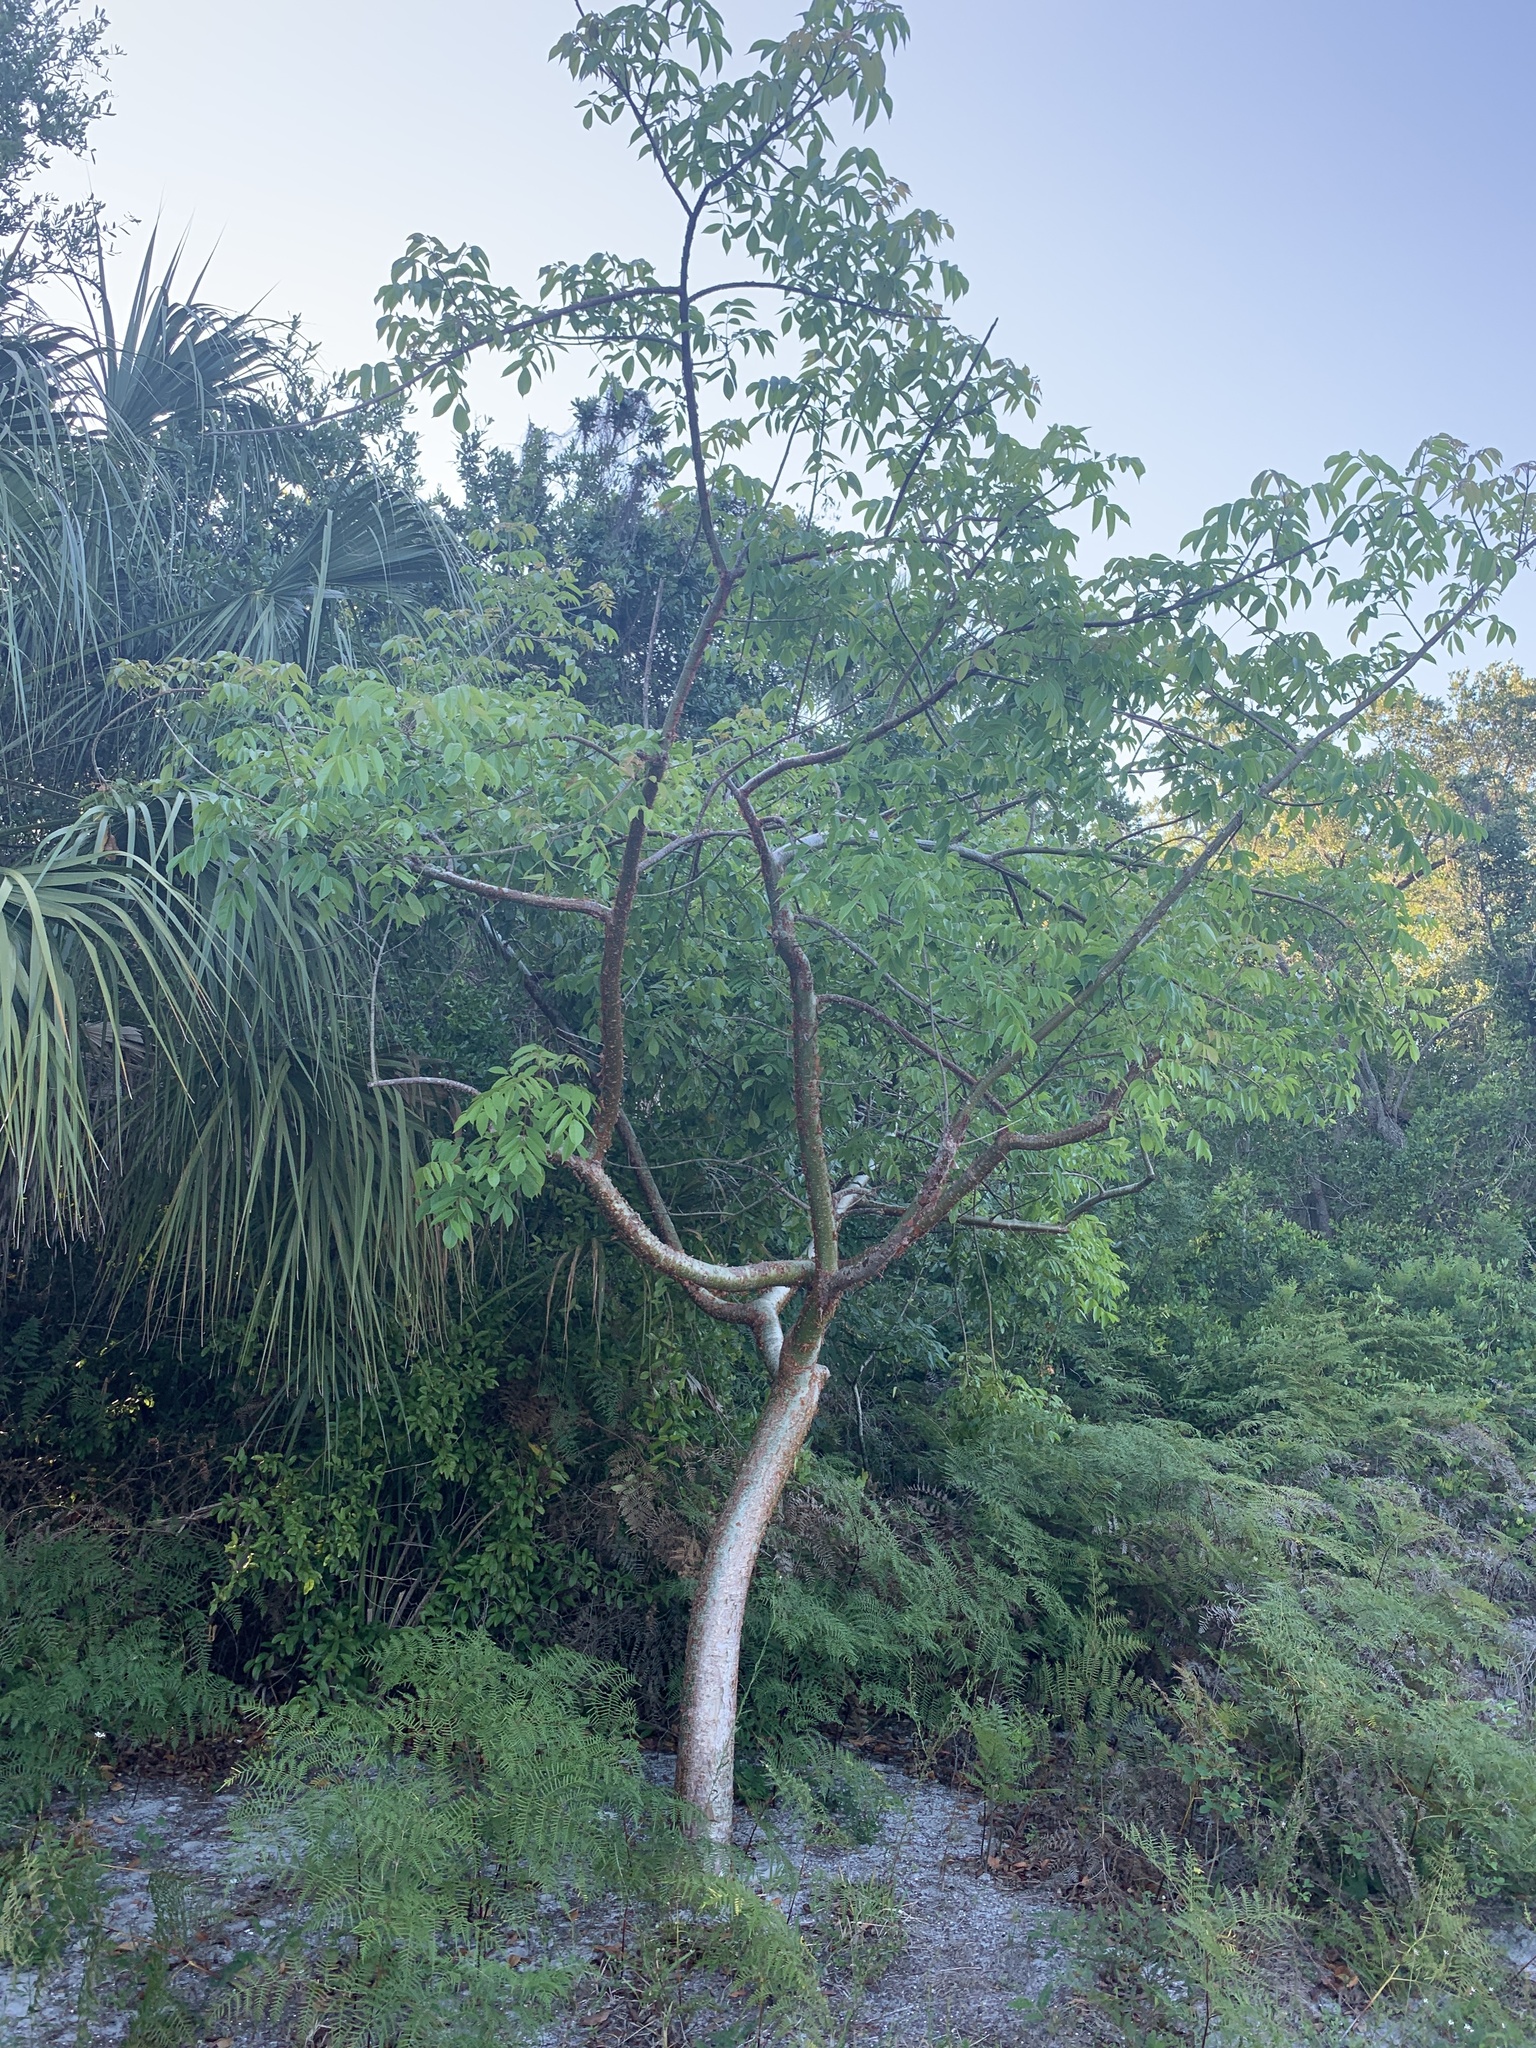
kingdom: Plantae
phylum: Tracheophyta
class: Magnoliopsida
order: Sapindales
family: Burseraceae
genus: Bursera
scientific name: Bursera simaruba
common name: Turpentine tree
